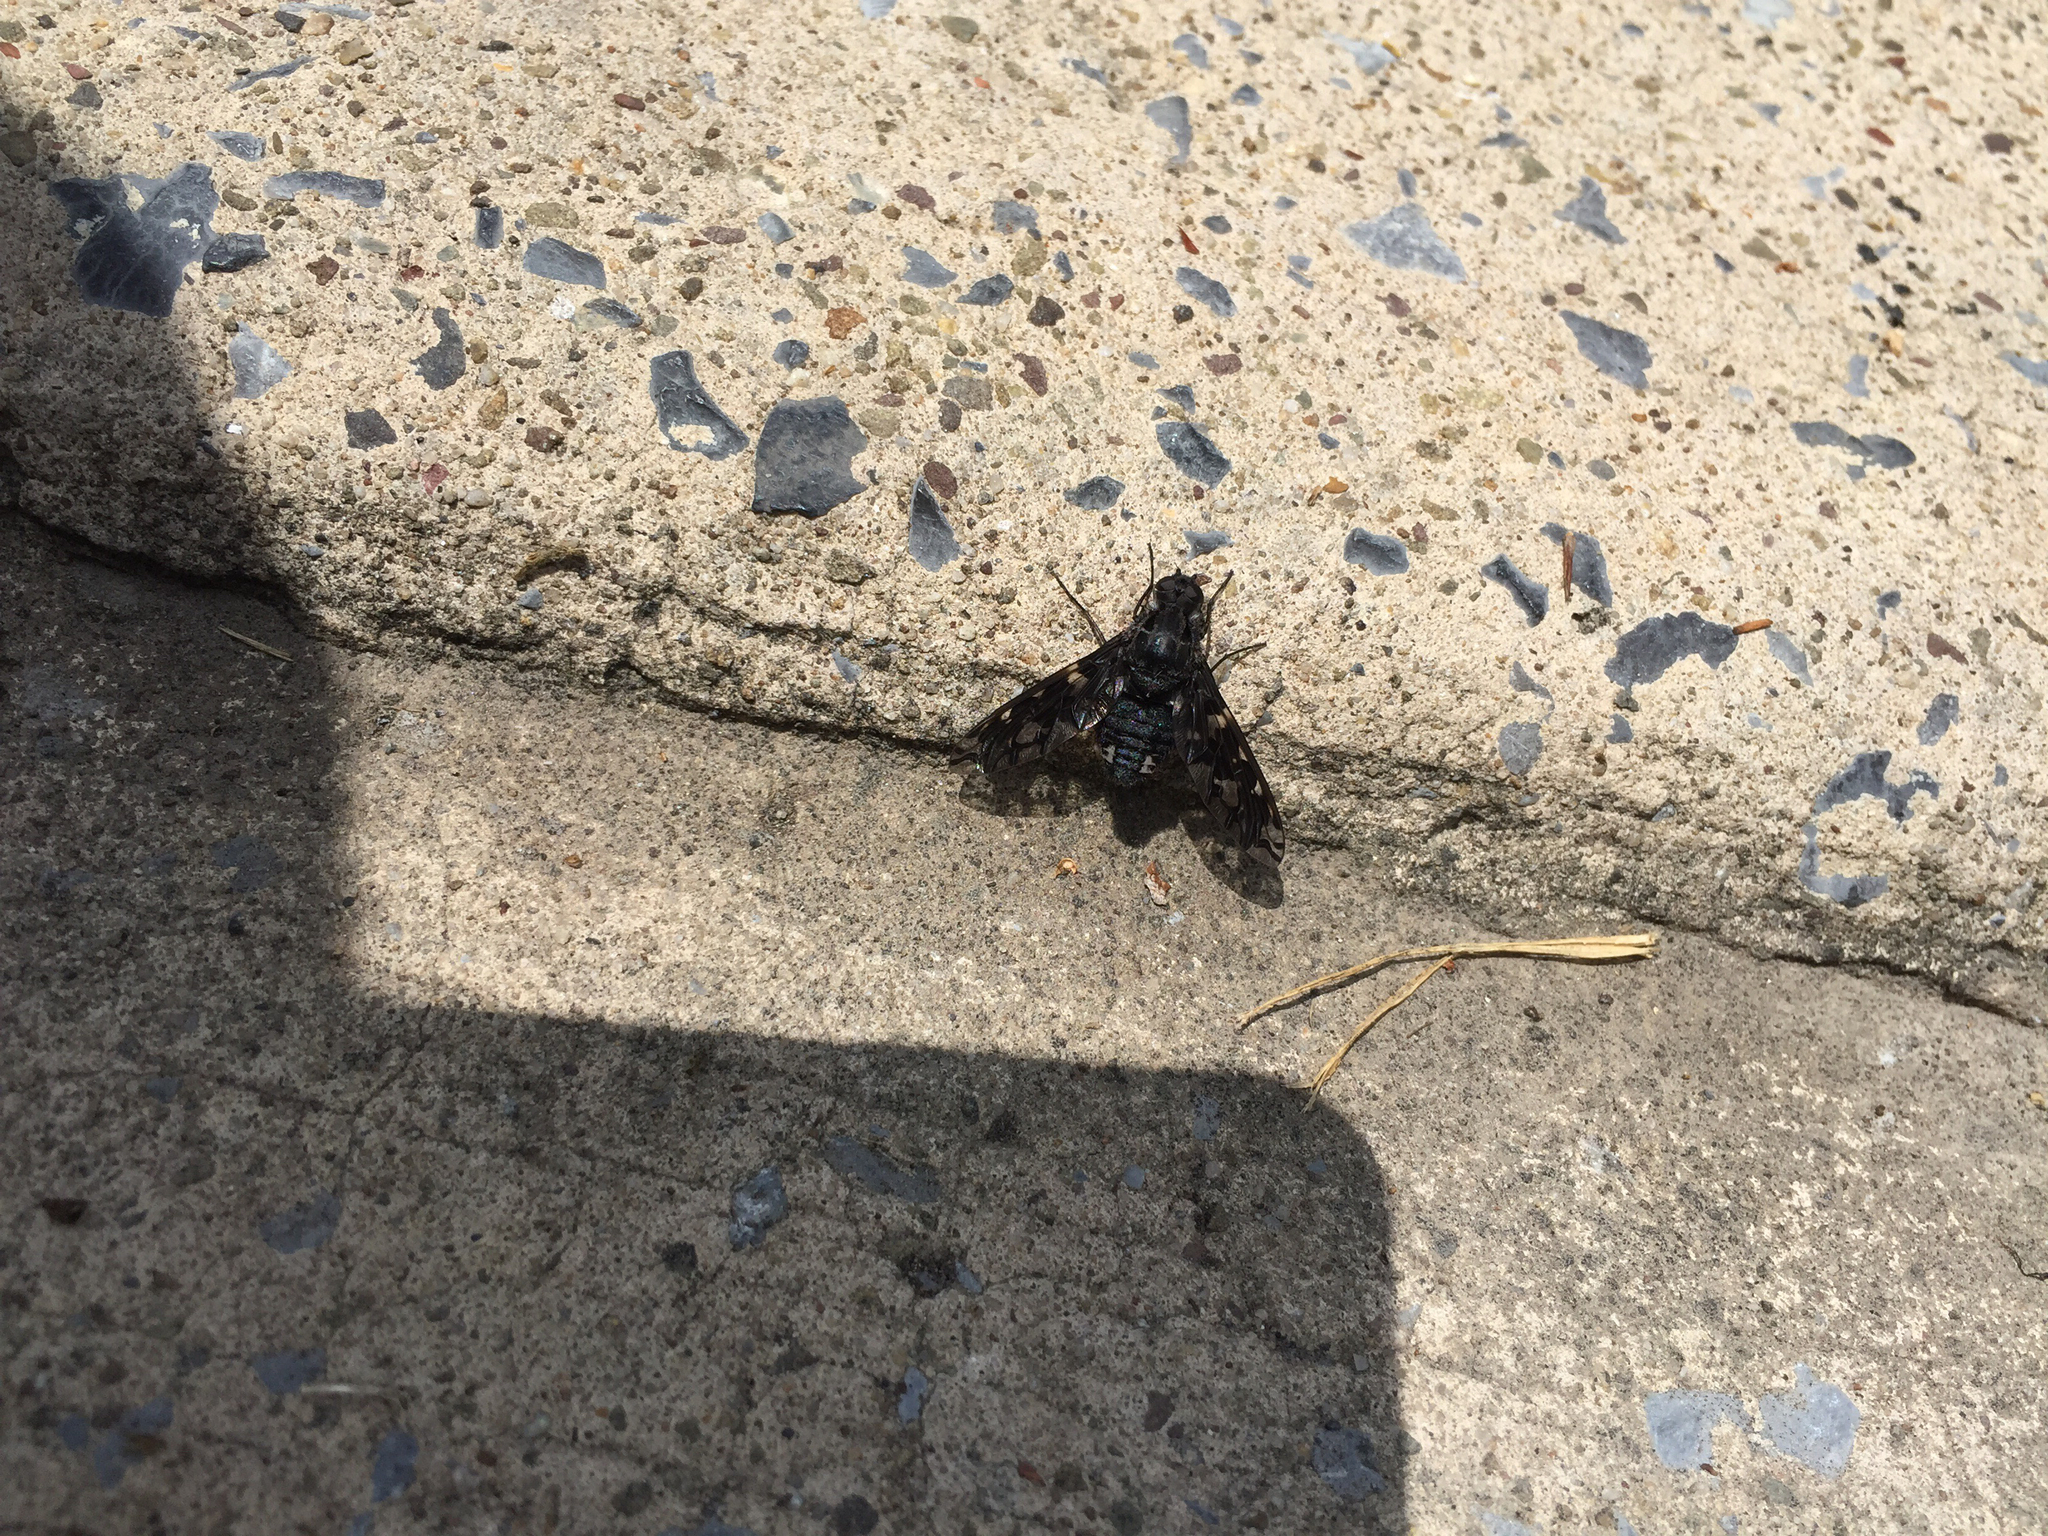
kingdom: Animalia
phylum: Arthropoda
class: Insecta
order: Diptera
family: Bombyliidae
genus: Xenox
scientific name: Xenox tigrinus
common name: Tiger bee fly
